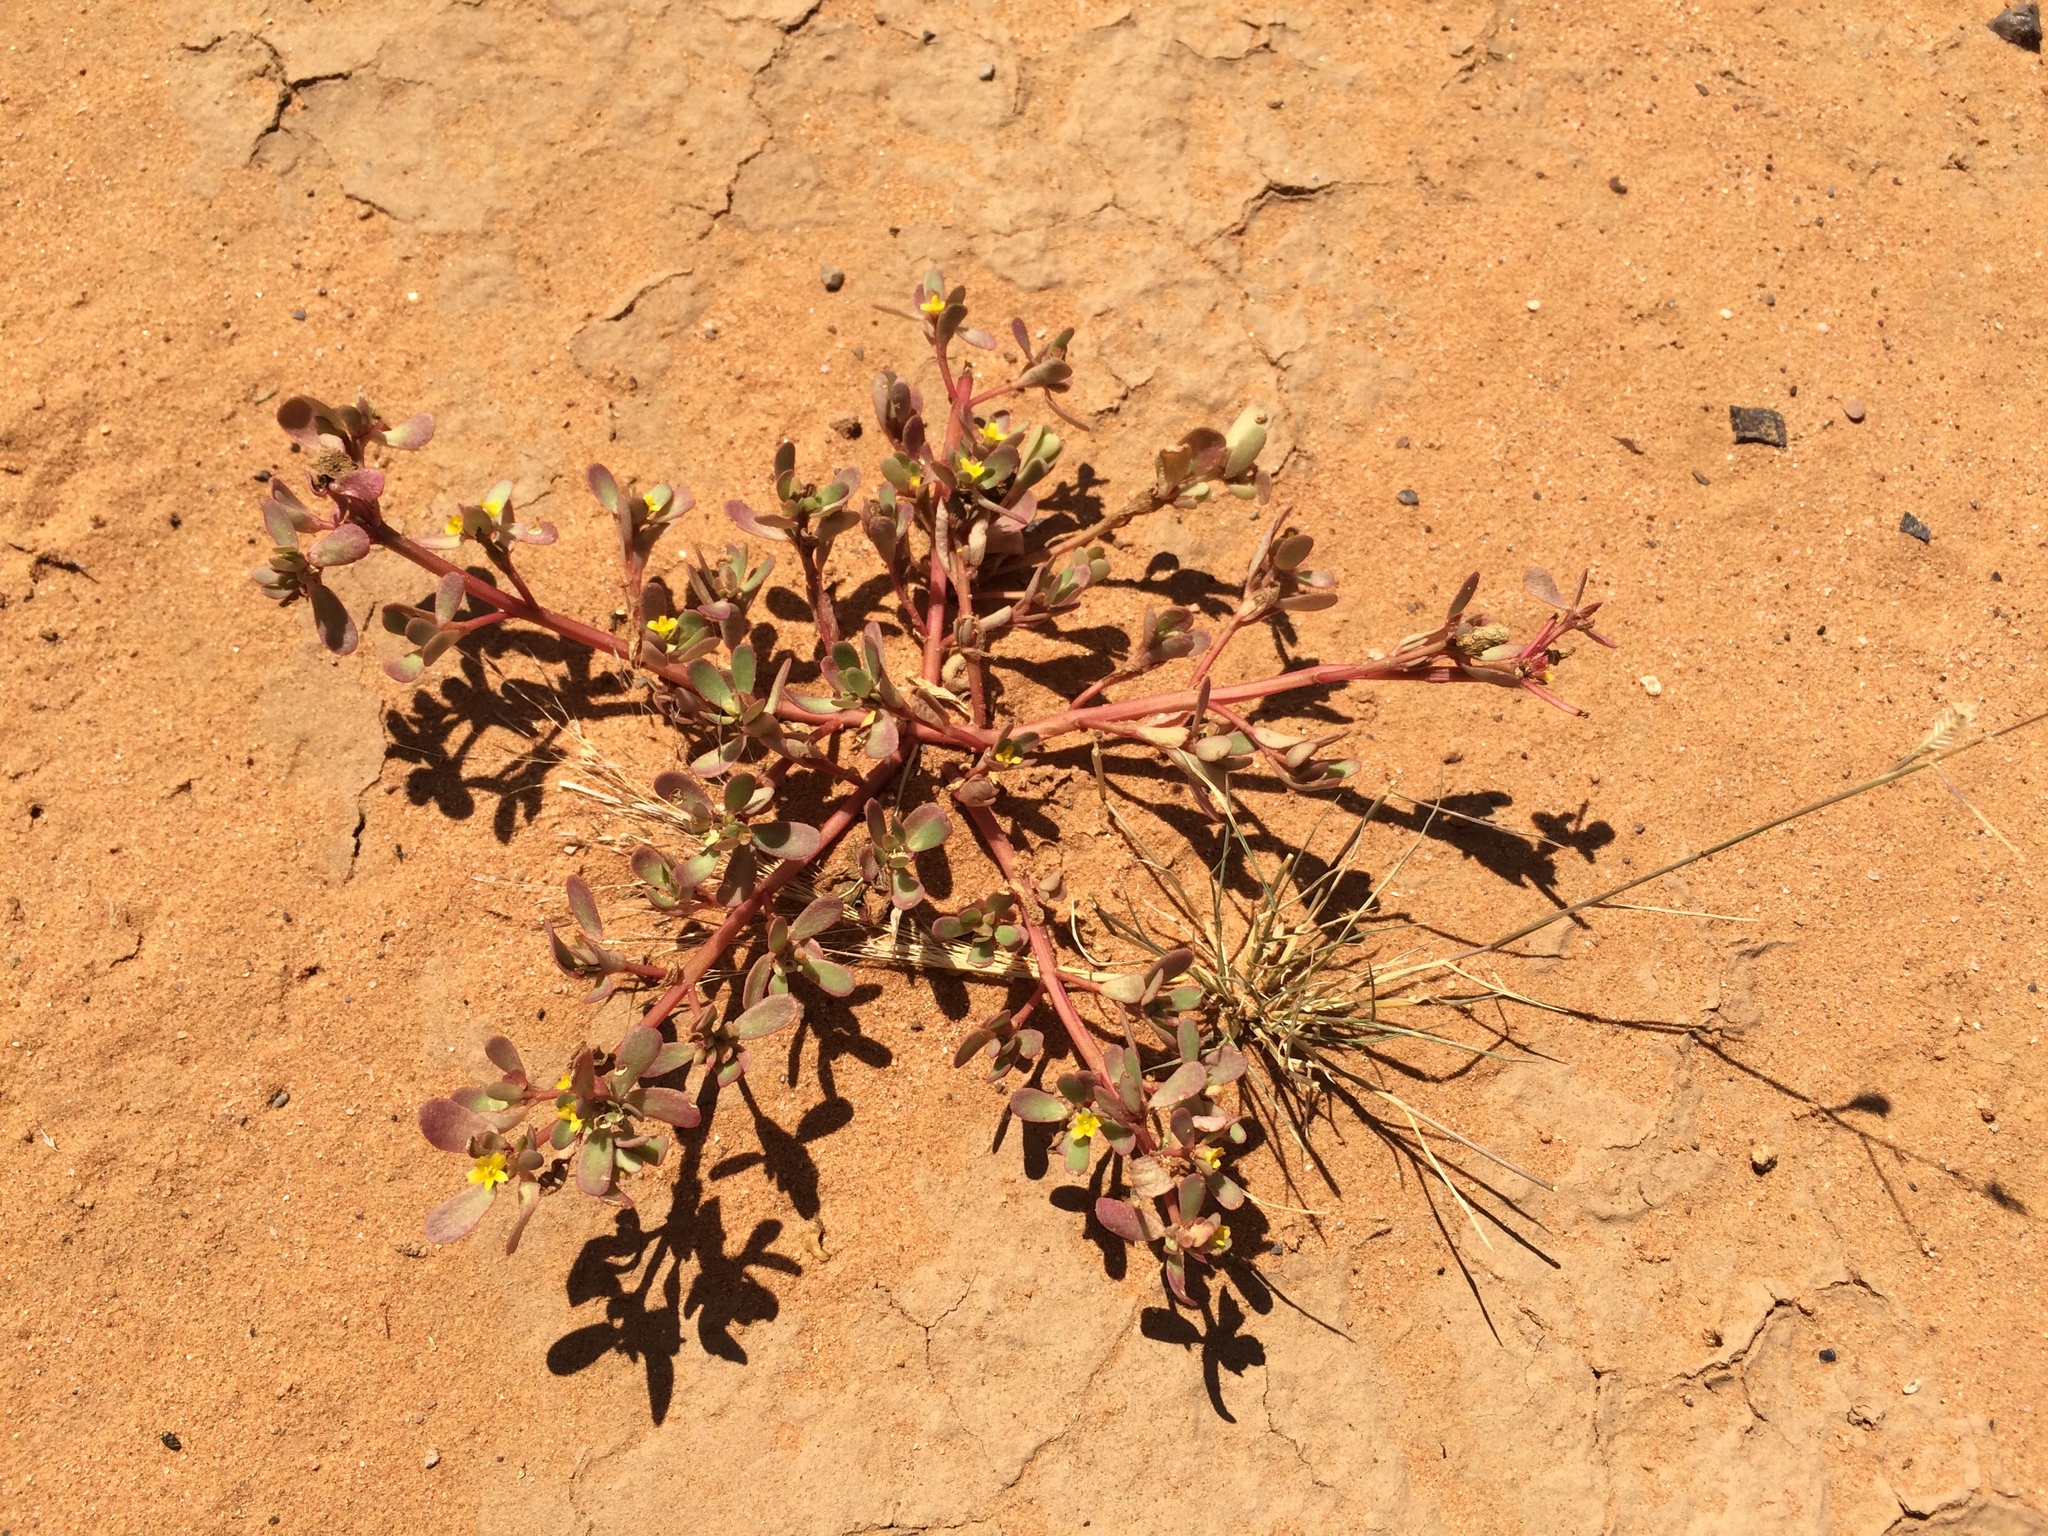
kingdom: Plantae
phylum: Tracheophyta
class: Magnoliopsida
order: Caryophyllales
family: Portulacaceae
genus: Portulaca
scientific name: Portulaca oleracea
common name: Common purslane
